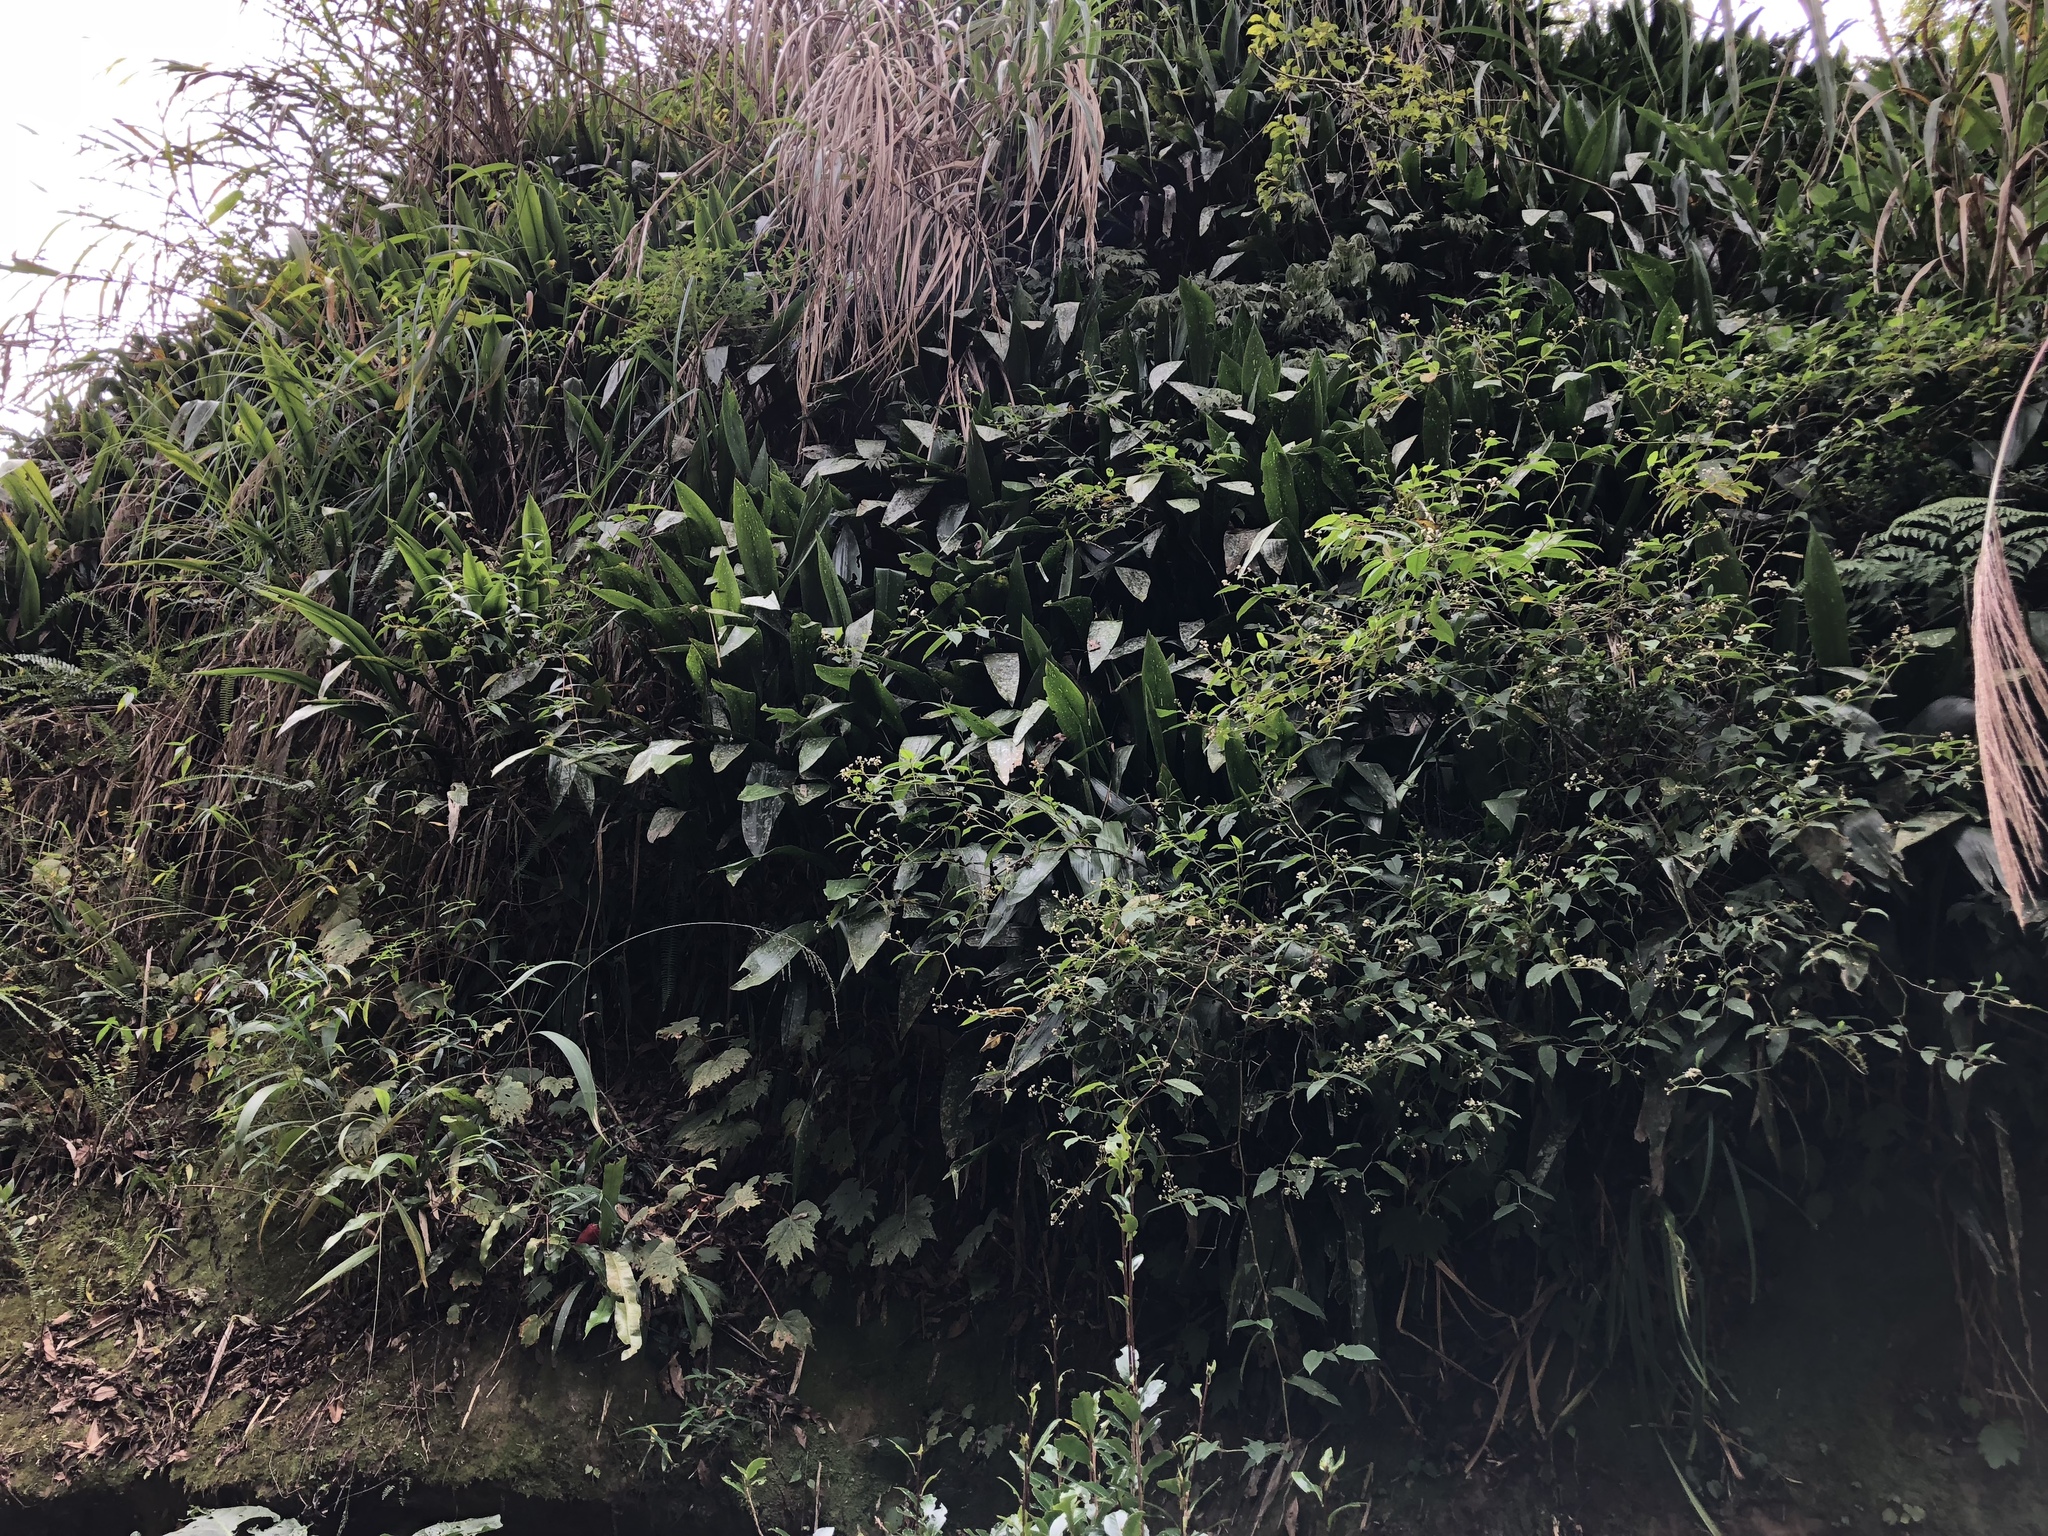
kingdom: Plantae
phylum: Tracheophyta
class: Liliopsida
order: Asparagales
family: Asparagaceae
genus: Aspidistra
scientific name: Aspidistra attenuata
